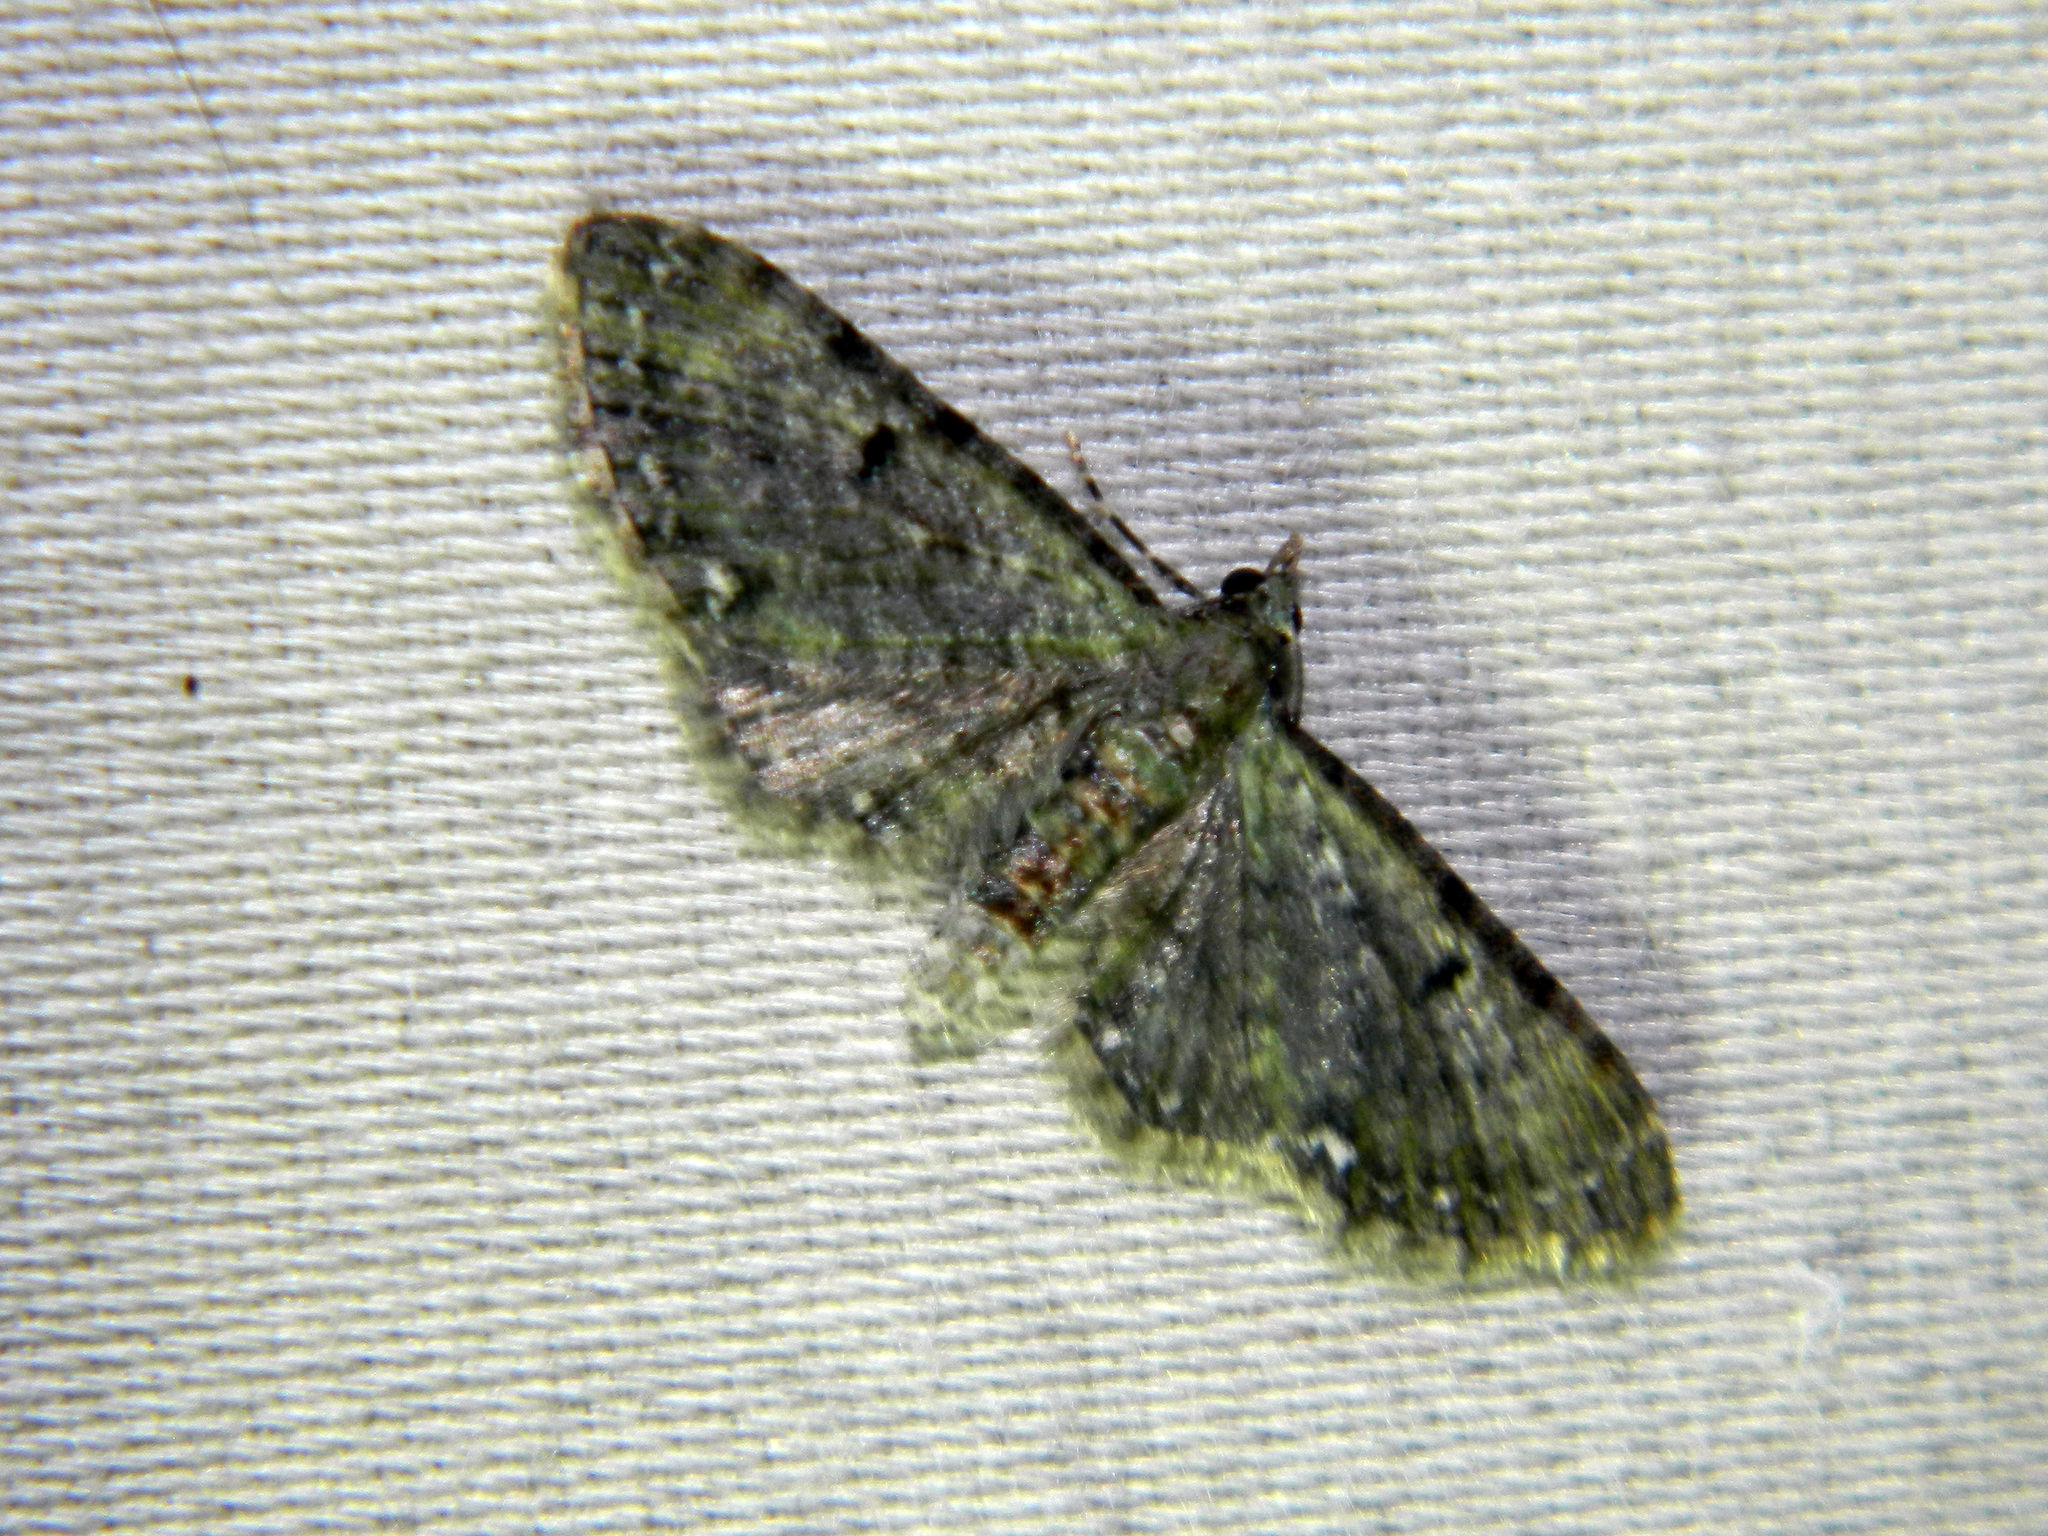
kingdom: Animalia
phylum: Arthropoda
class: Insecta
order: Lepidoptera
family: Geometridae
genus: Pasiphila
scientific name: Pasiphila rectangulata
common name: Green pug
